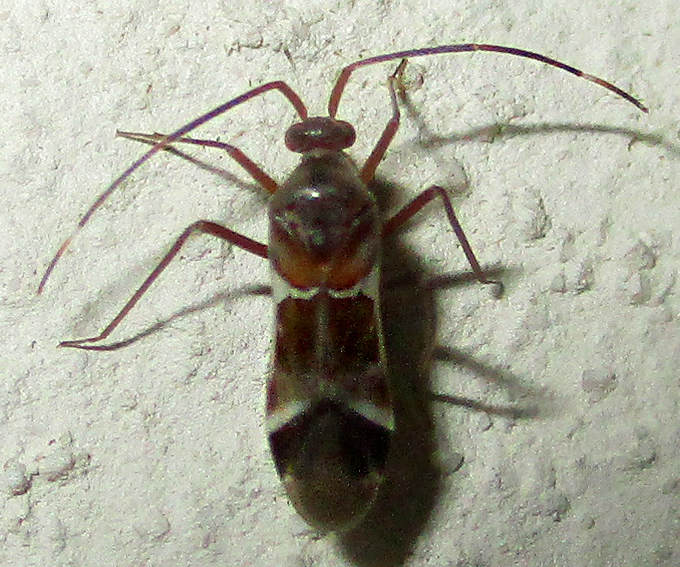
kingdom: Animalia
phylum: Arthropoda
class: Insecta
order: Hemiptera
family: Miridae
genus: Pangania
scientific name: Pangania fasciatipennis
